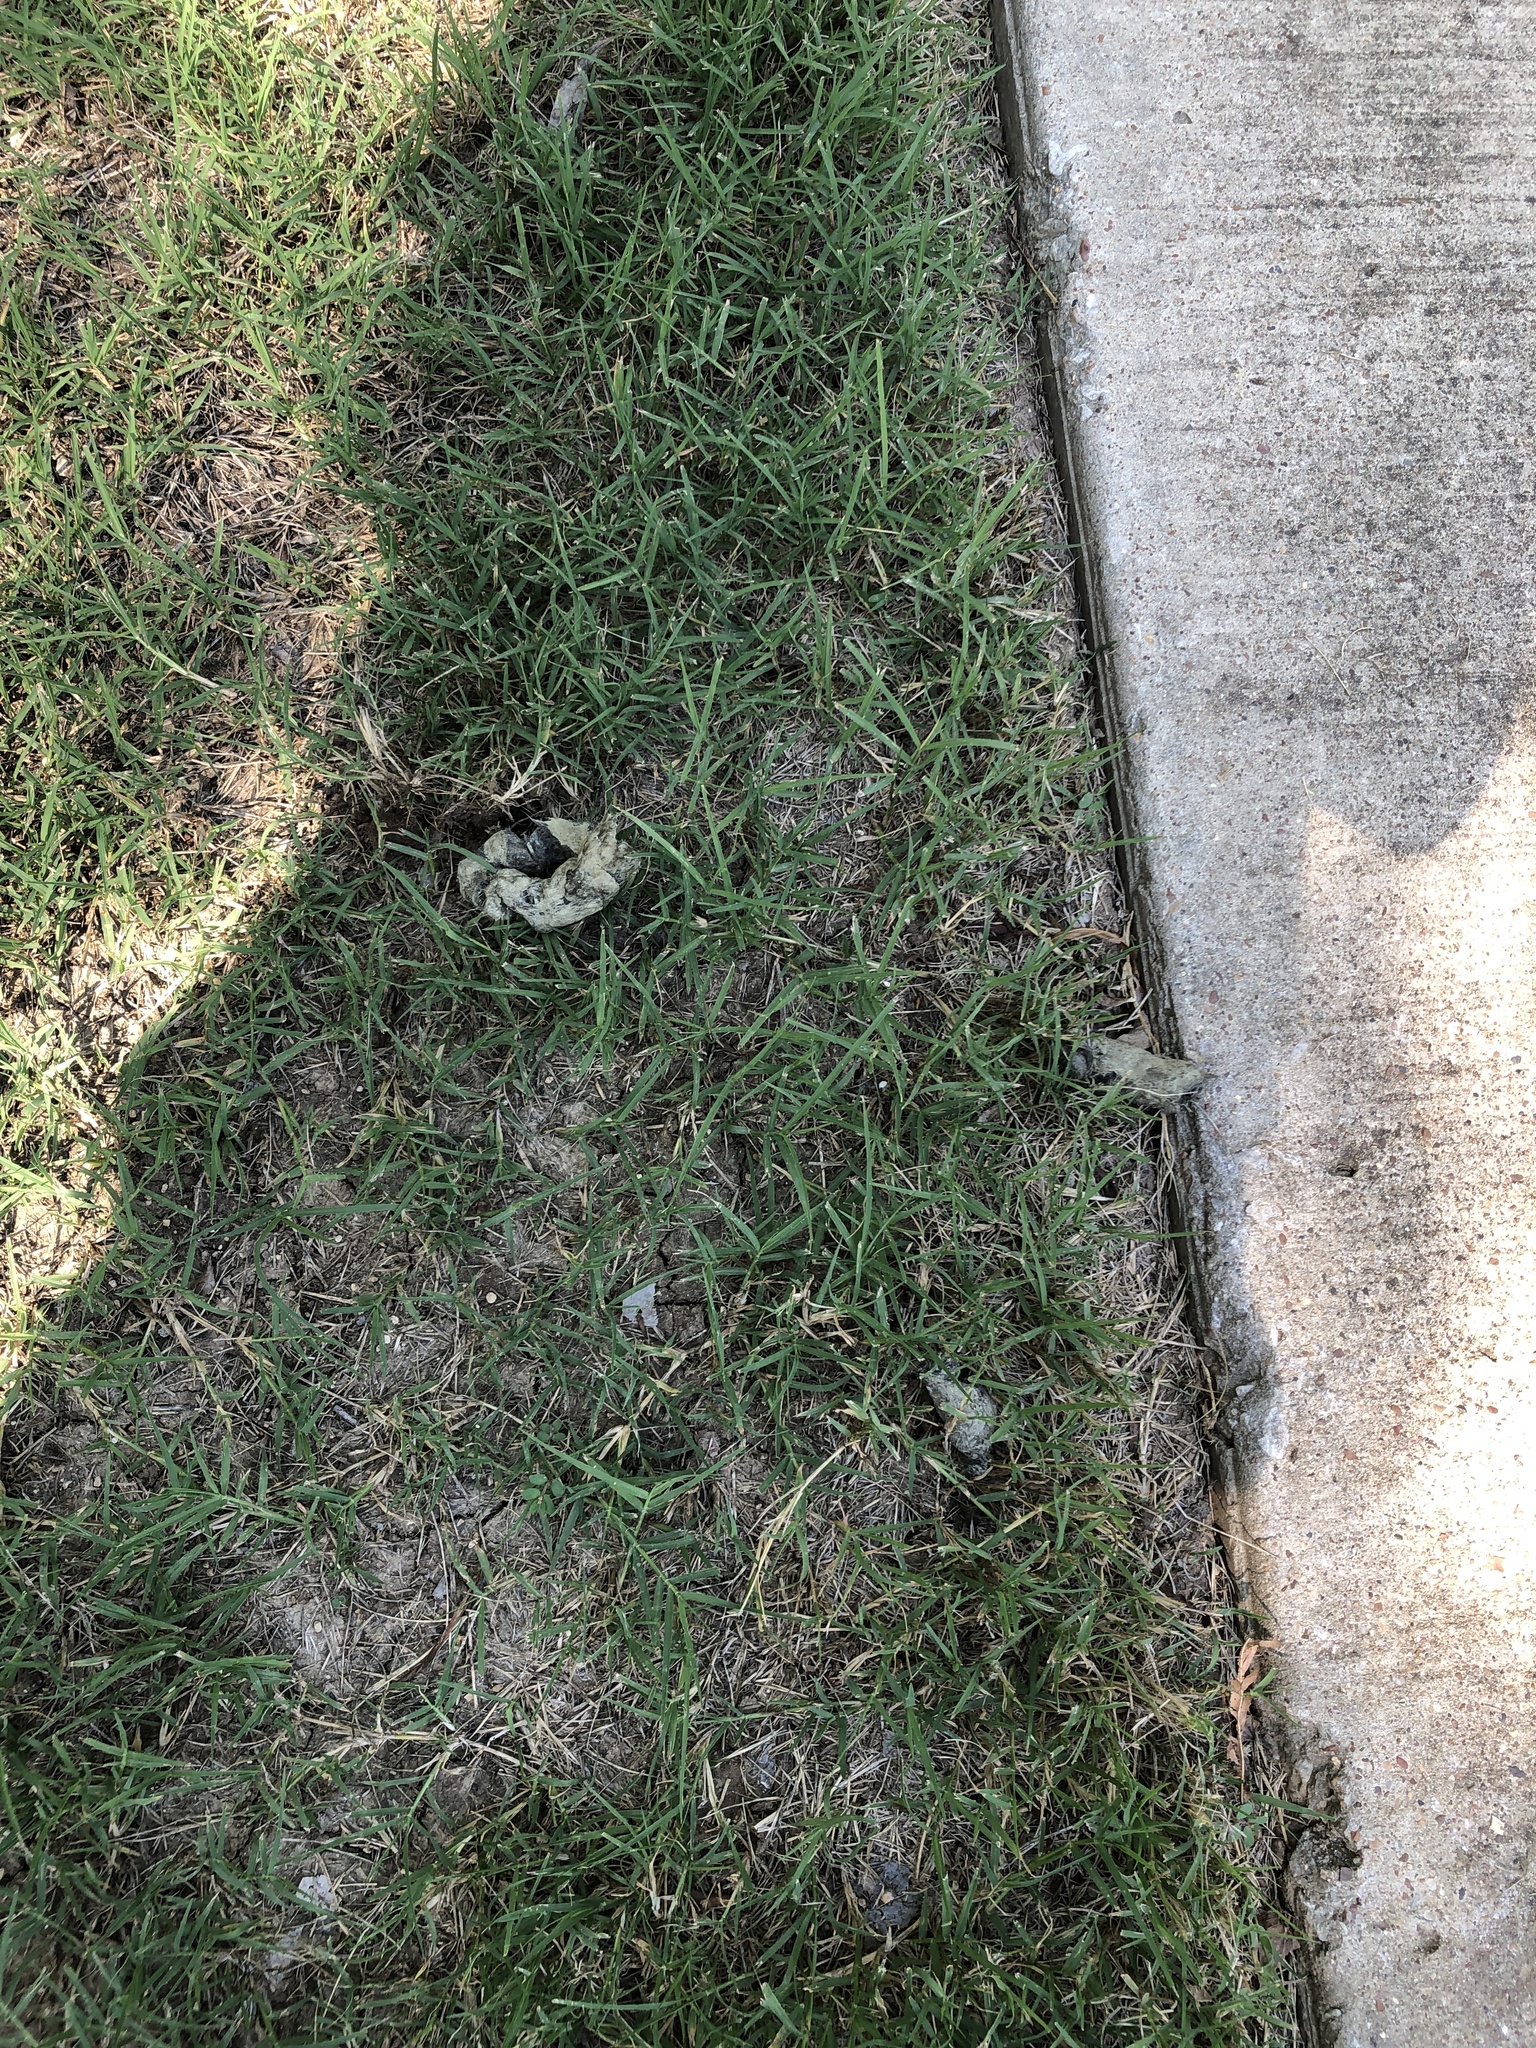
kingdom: Animalia
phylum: Chordata
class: Mammalia
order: Carnivora
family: Canidae
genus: Canis
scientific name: Canis latrans
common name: Coyote
